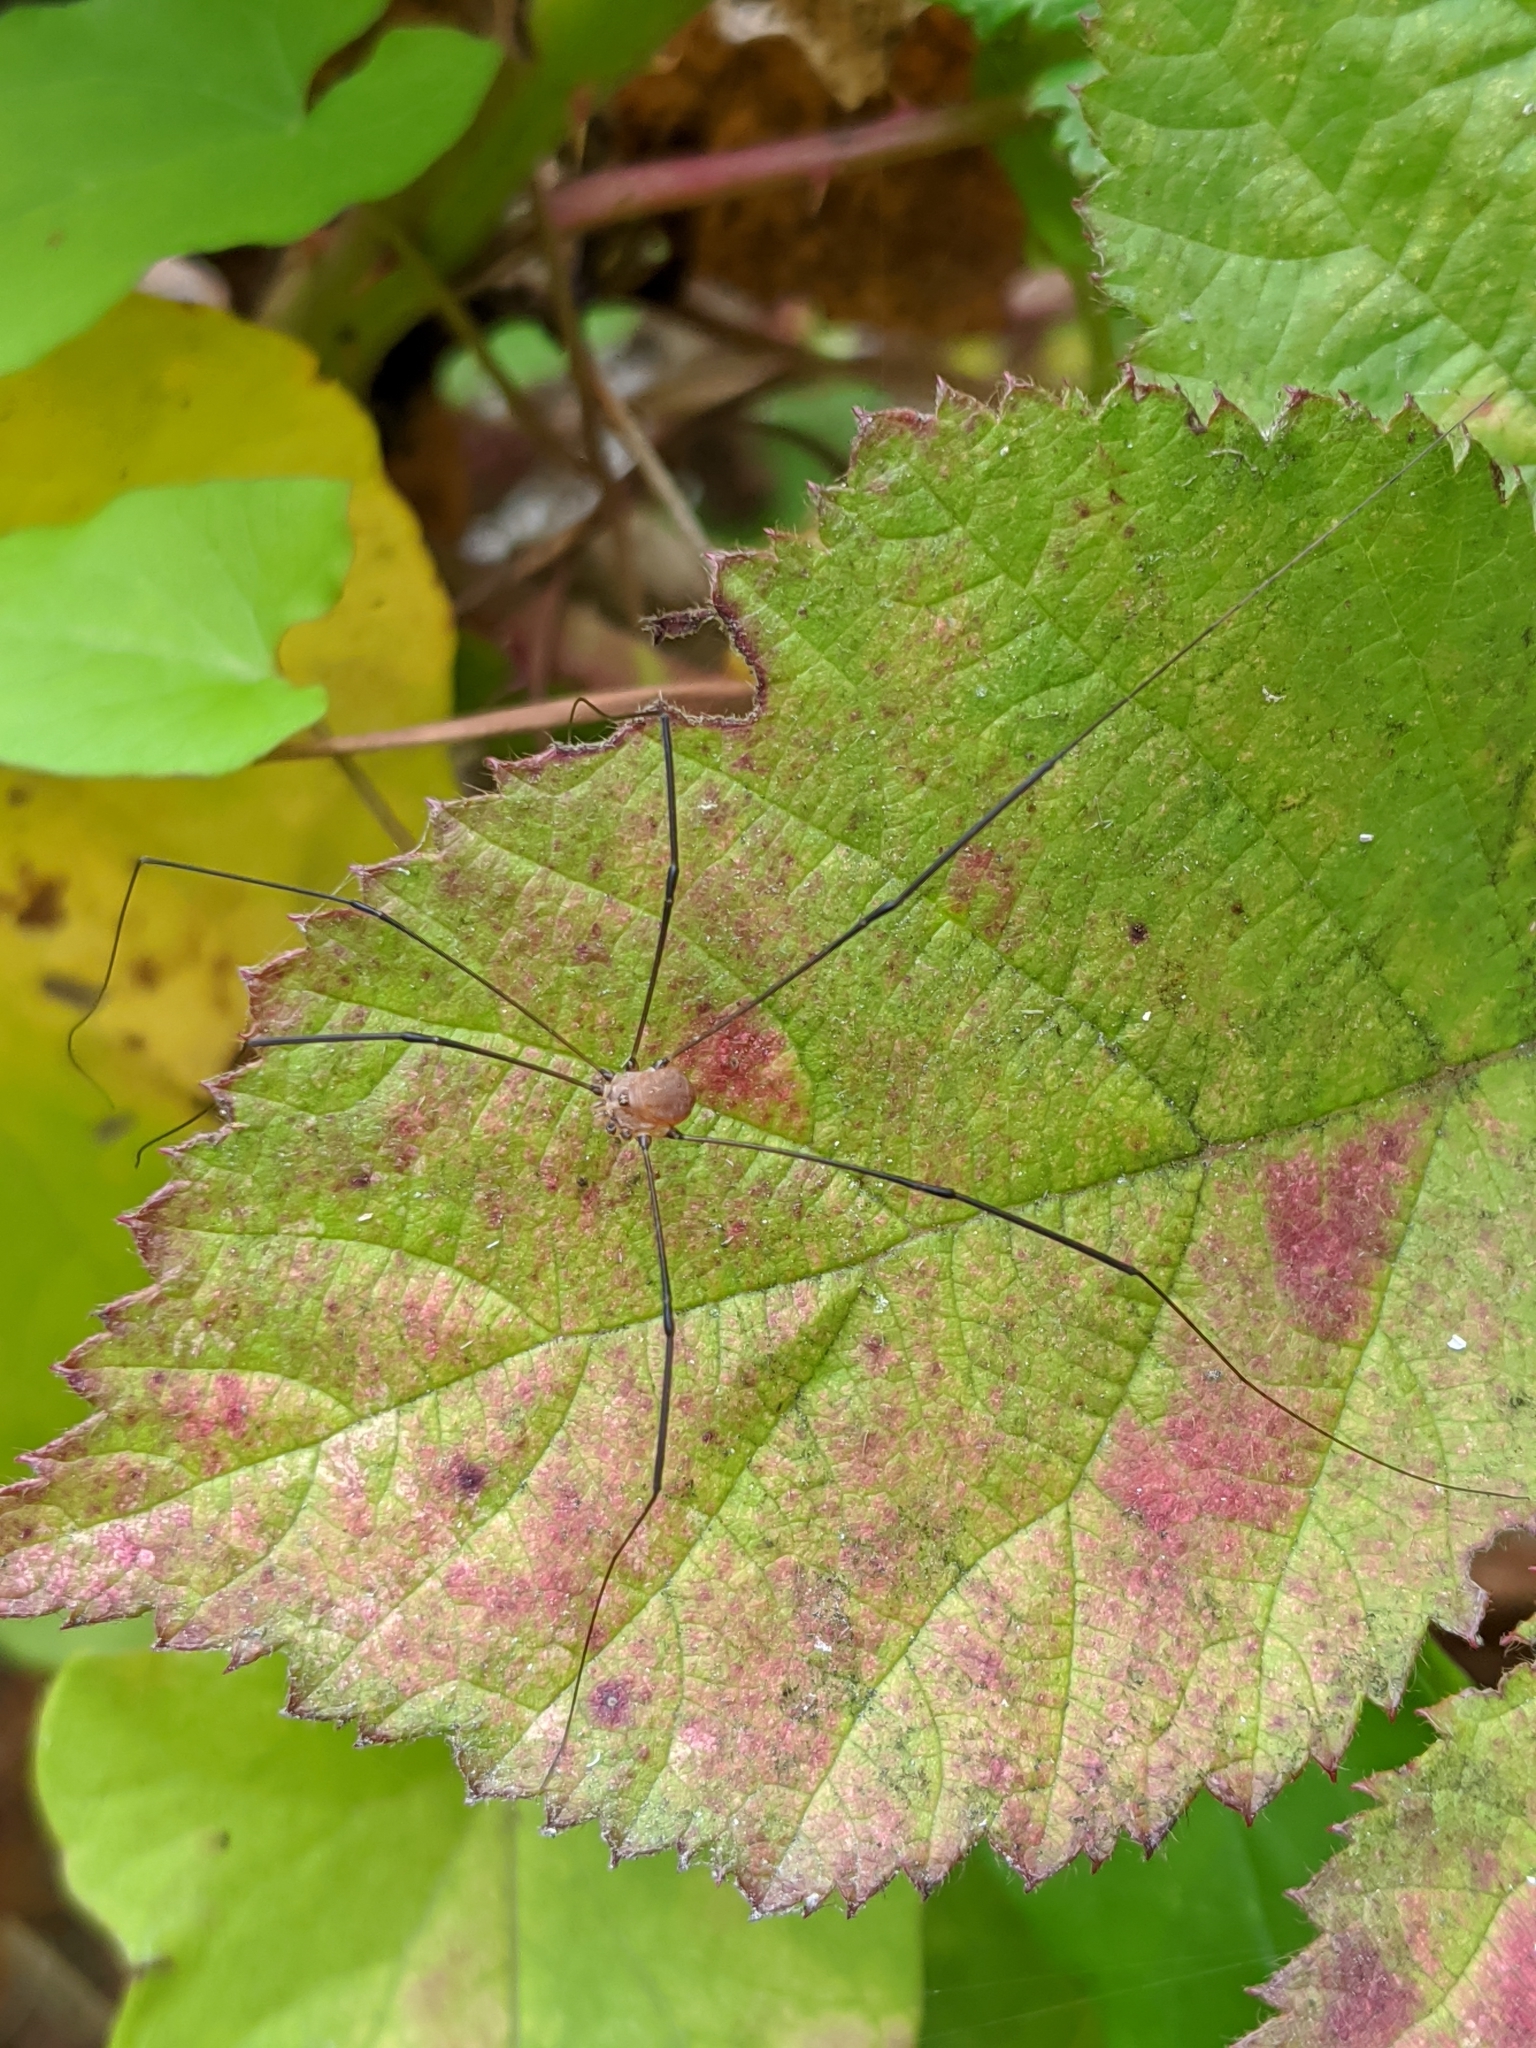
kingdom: Animalia
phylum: Arthropoda
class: Arachnida
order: Opiliones
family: Sclerosomatidae
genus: Leiobunum
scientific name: Leiobunum blackwalli
